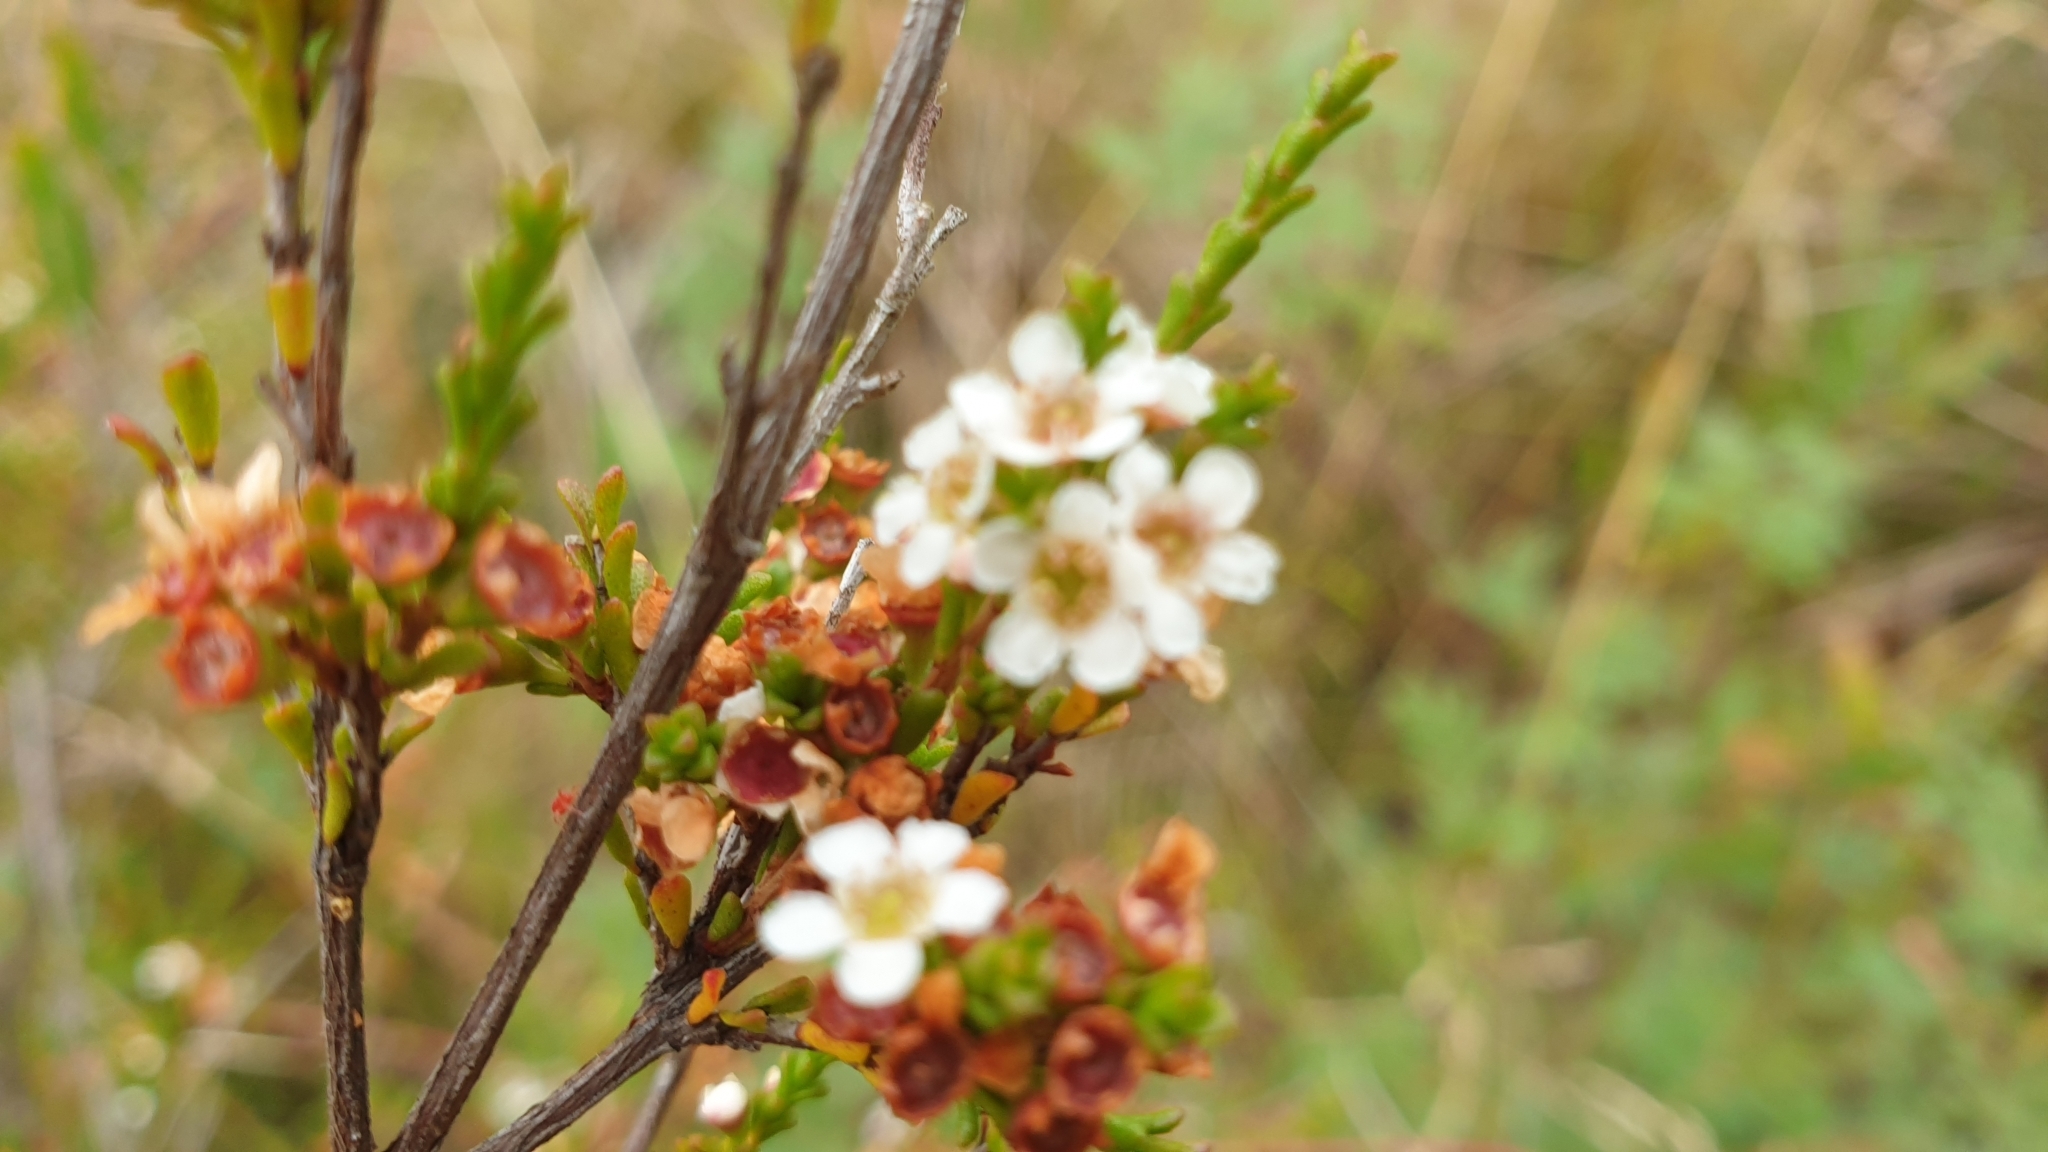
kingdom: Plantae
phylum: Tracheophyta
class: Magnoliopsida
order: Myrtales
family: Myrtaceae
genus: Baeckea
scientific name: Baeckea omissa
